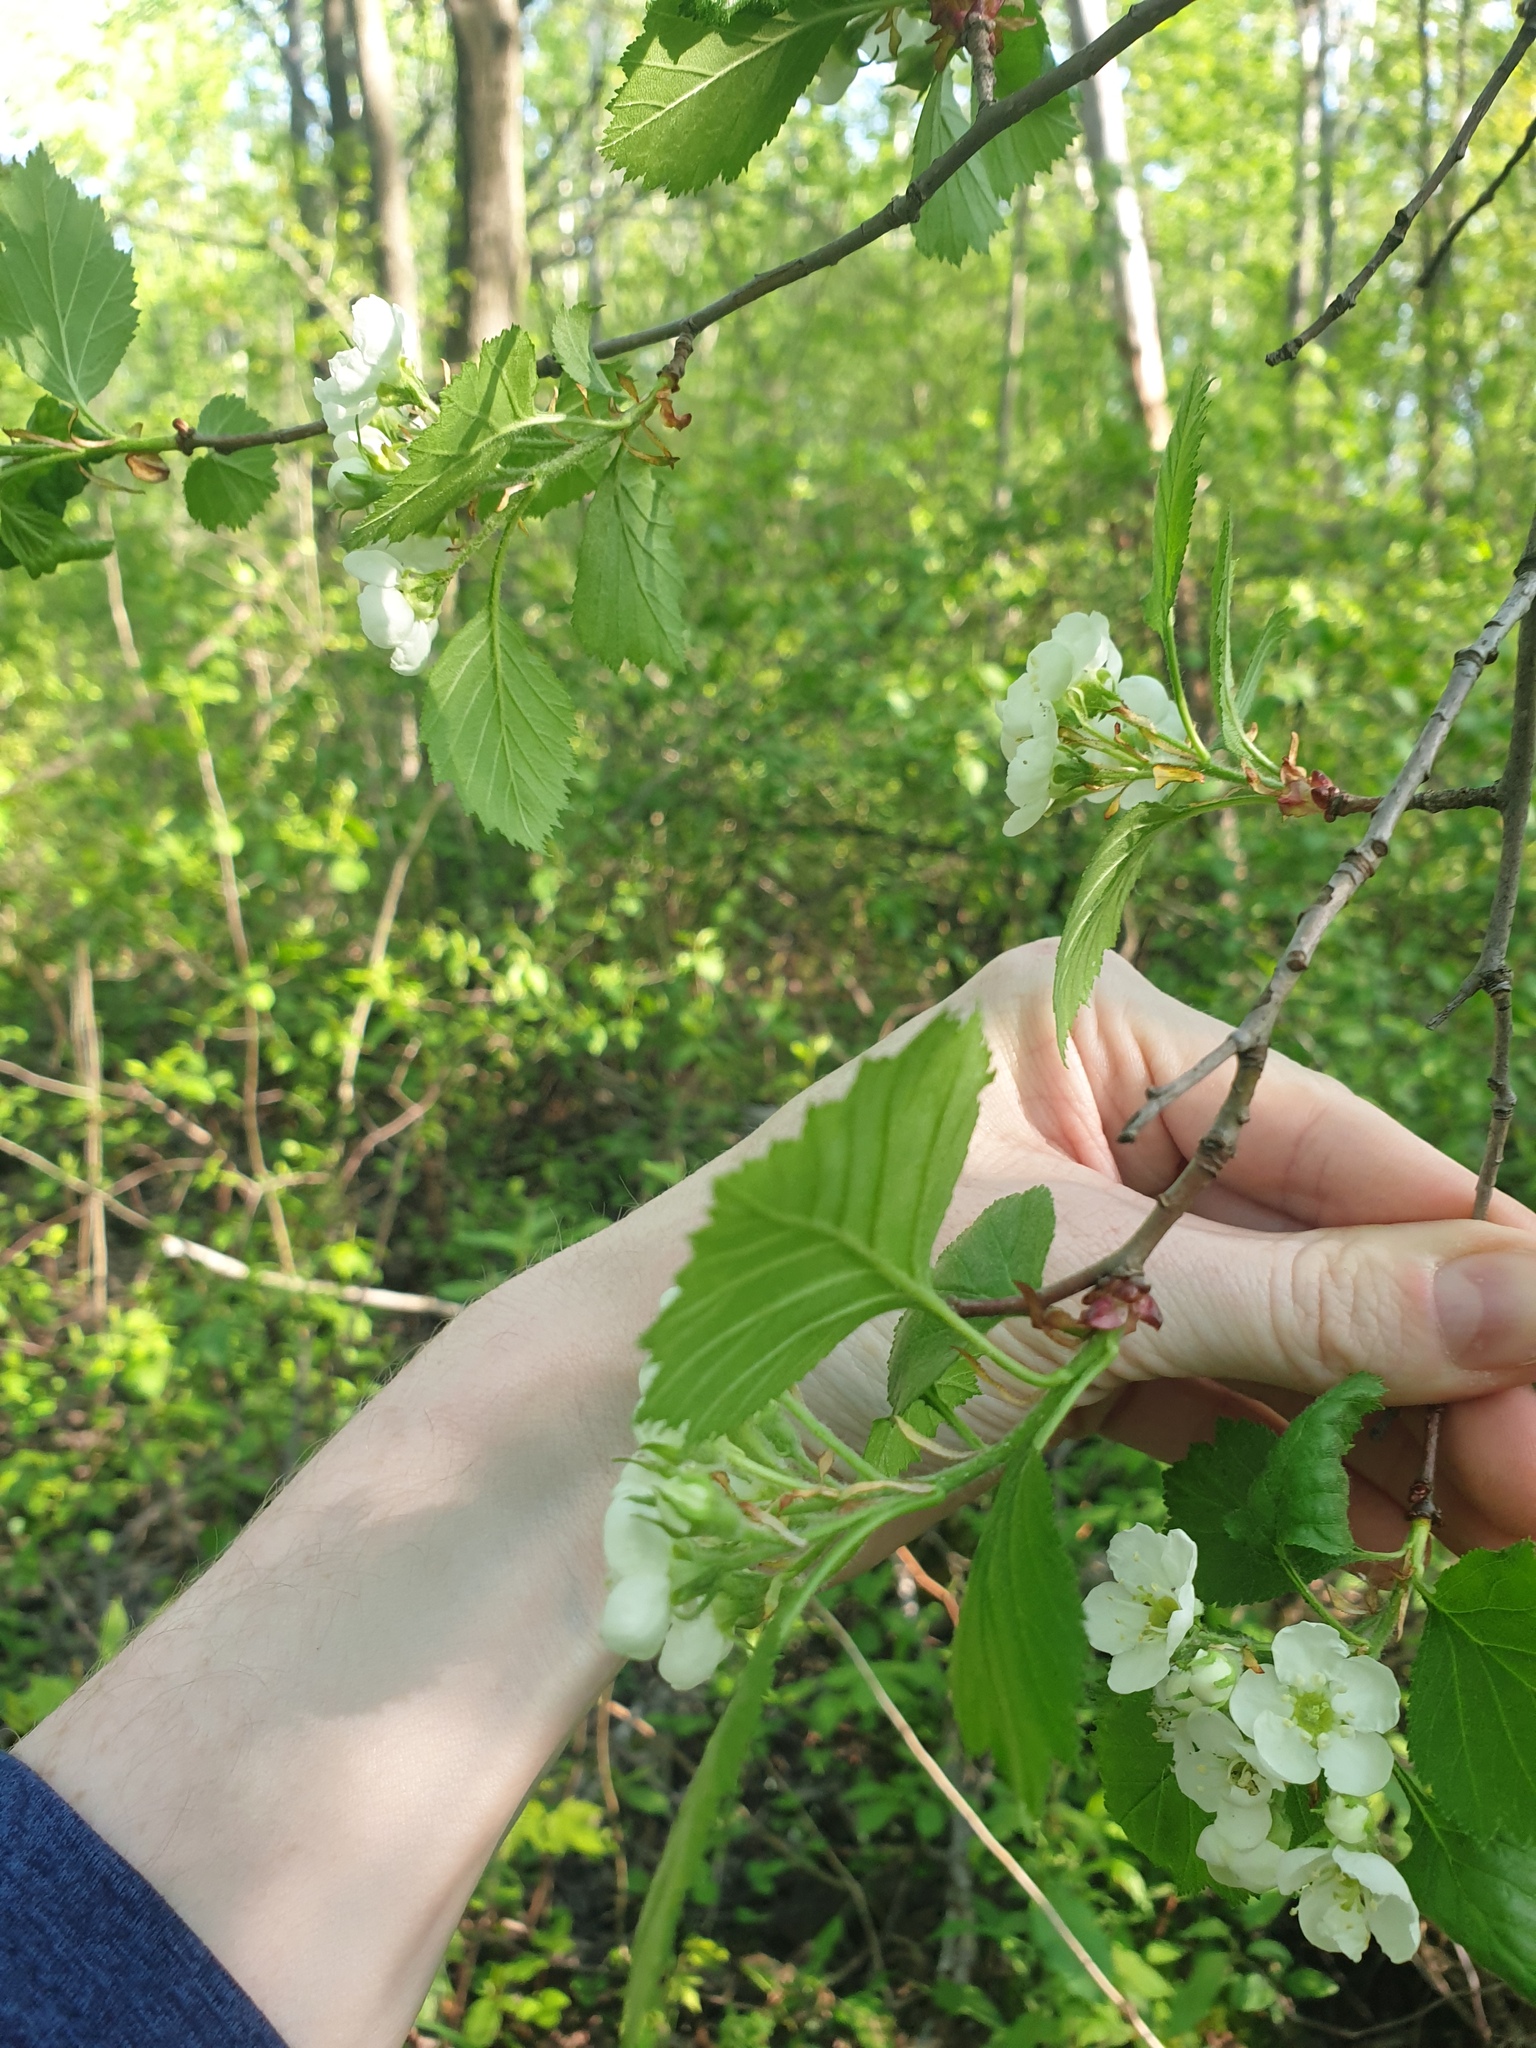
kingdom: Plantae
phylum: Tracheophyta
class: Magnoliopsida
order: Rosales
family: Rosaceae
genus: Crataegus
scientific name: Crataegus chrysocarpa
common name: Fire-berry hawthorn
